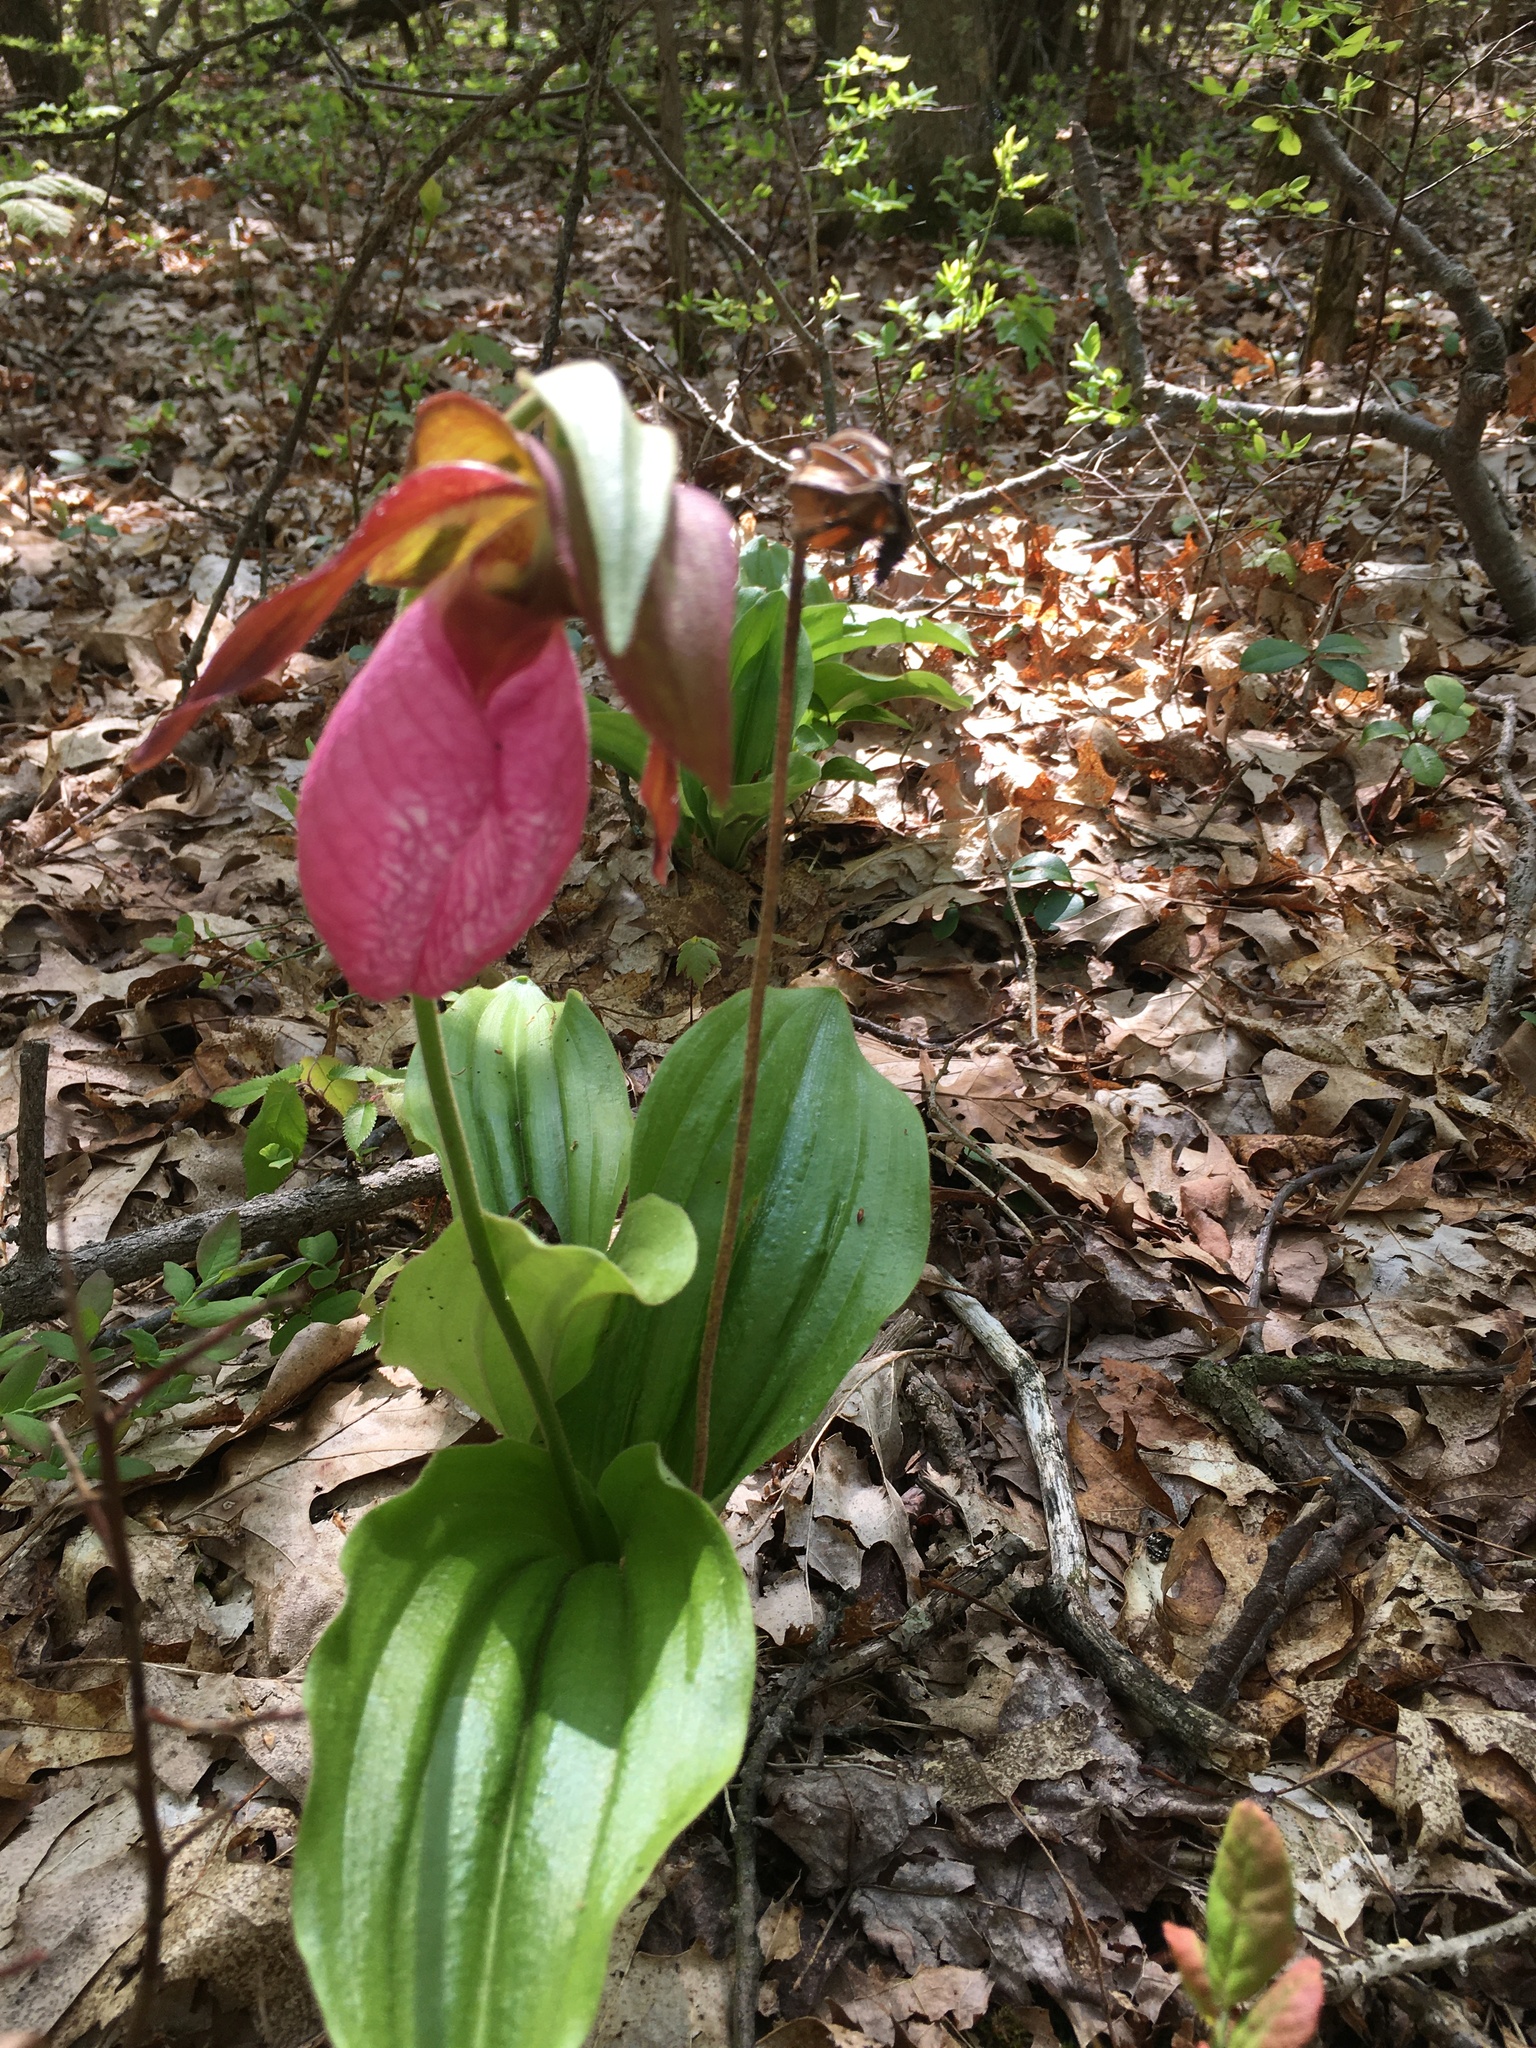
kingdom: Plantae
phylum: Tracheophyta
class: Liliopsida
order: Asparagales
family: Orchidaceae
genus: Cypripedium
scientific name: Cypripedium acaule
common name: Pink lady's-slipper
